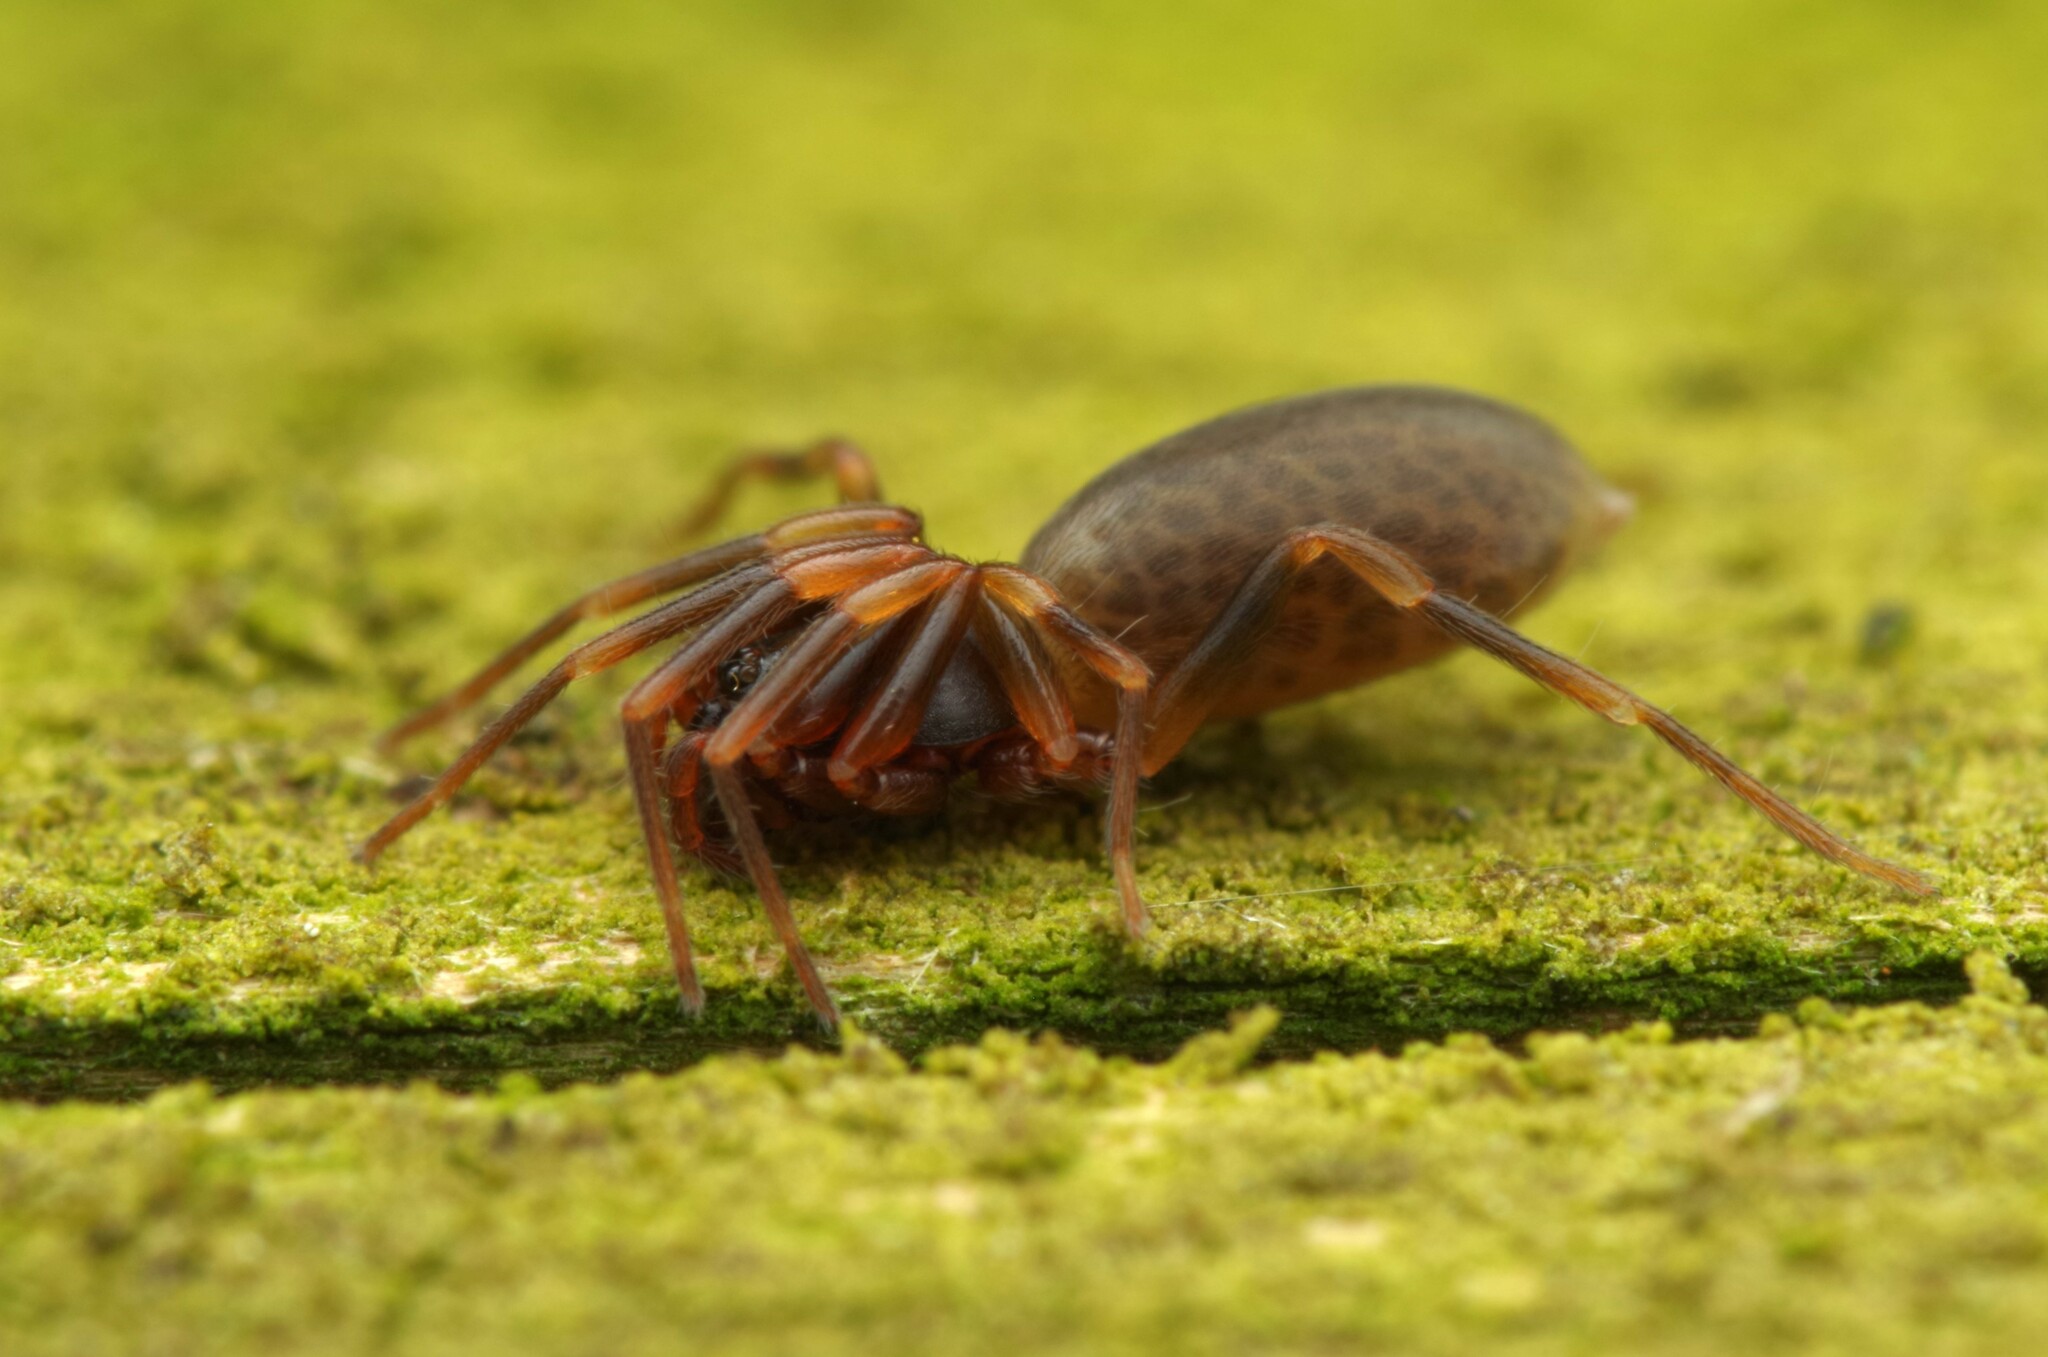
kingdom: Animalia
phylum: Arthropoda
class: Arachnida
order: Araneae
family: Dysderidae
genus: Harpactea
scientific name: Harpactea hombergi
